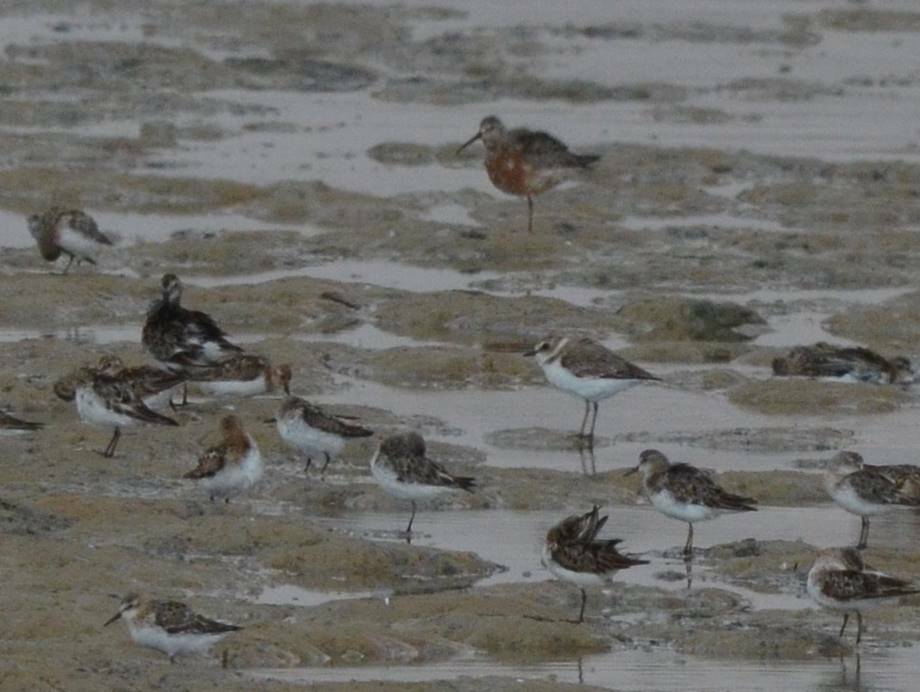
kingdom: Animalia
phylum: Chordata
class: Aves
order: Charadriiformes
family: Scolopacidae
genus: Calidris
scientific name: Calidris ferruginea
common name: Curlew sandpiper
